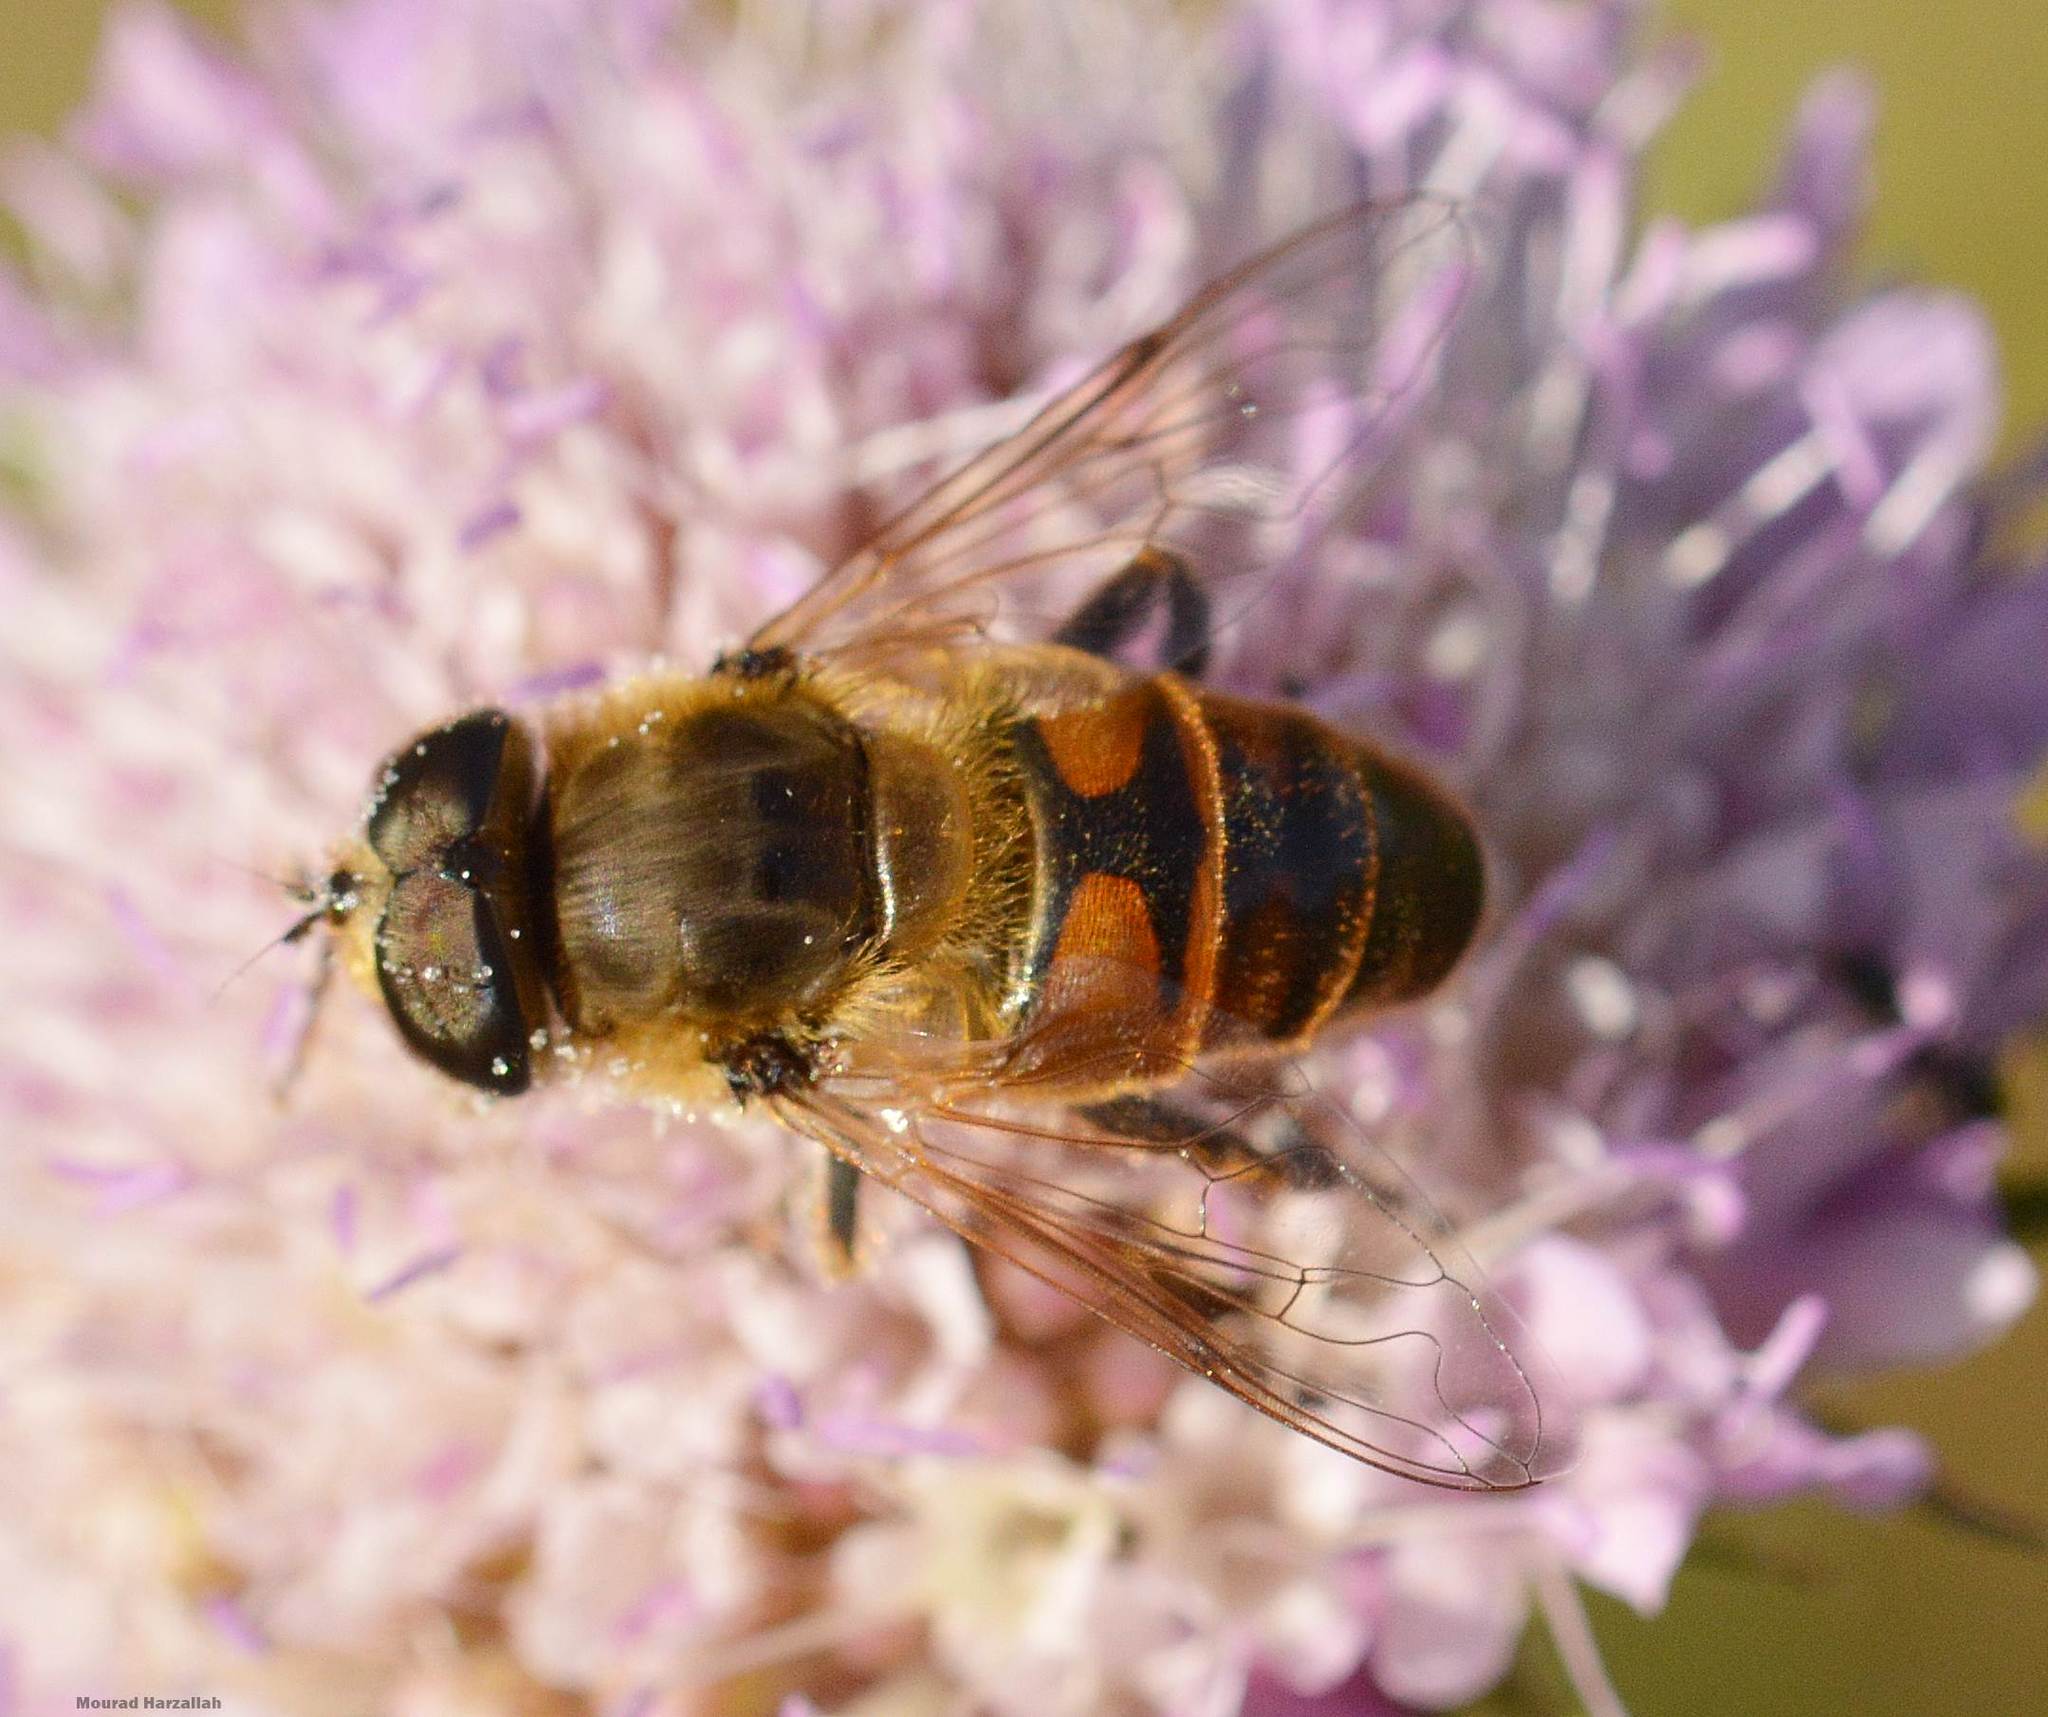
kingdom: Animalia
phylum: Arthropoda
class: Insecta
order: Diptera
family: Syrphidae
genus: Eristalis
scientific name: Eristalis tenax
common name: Drone fly
